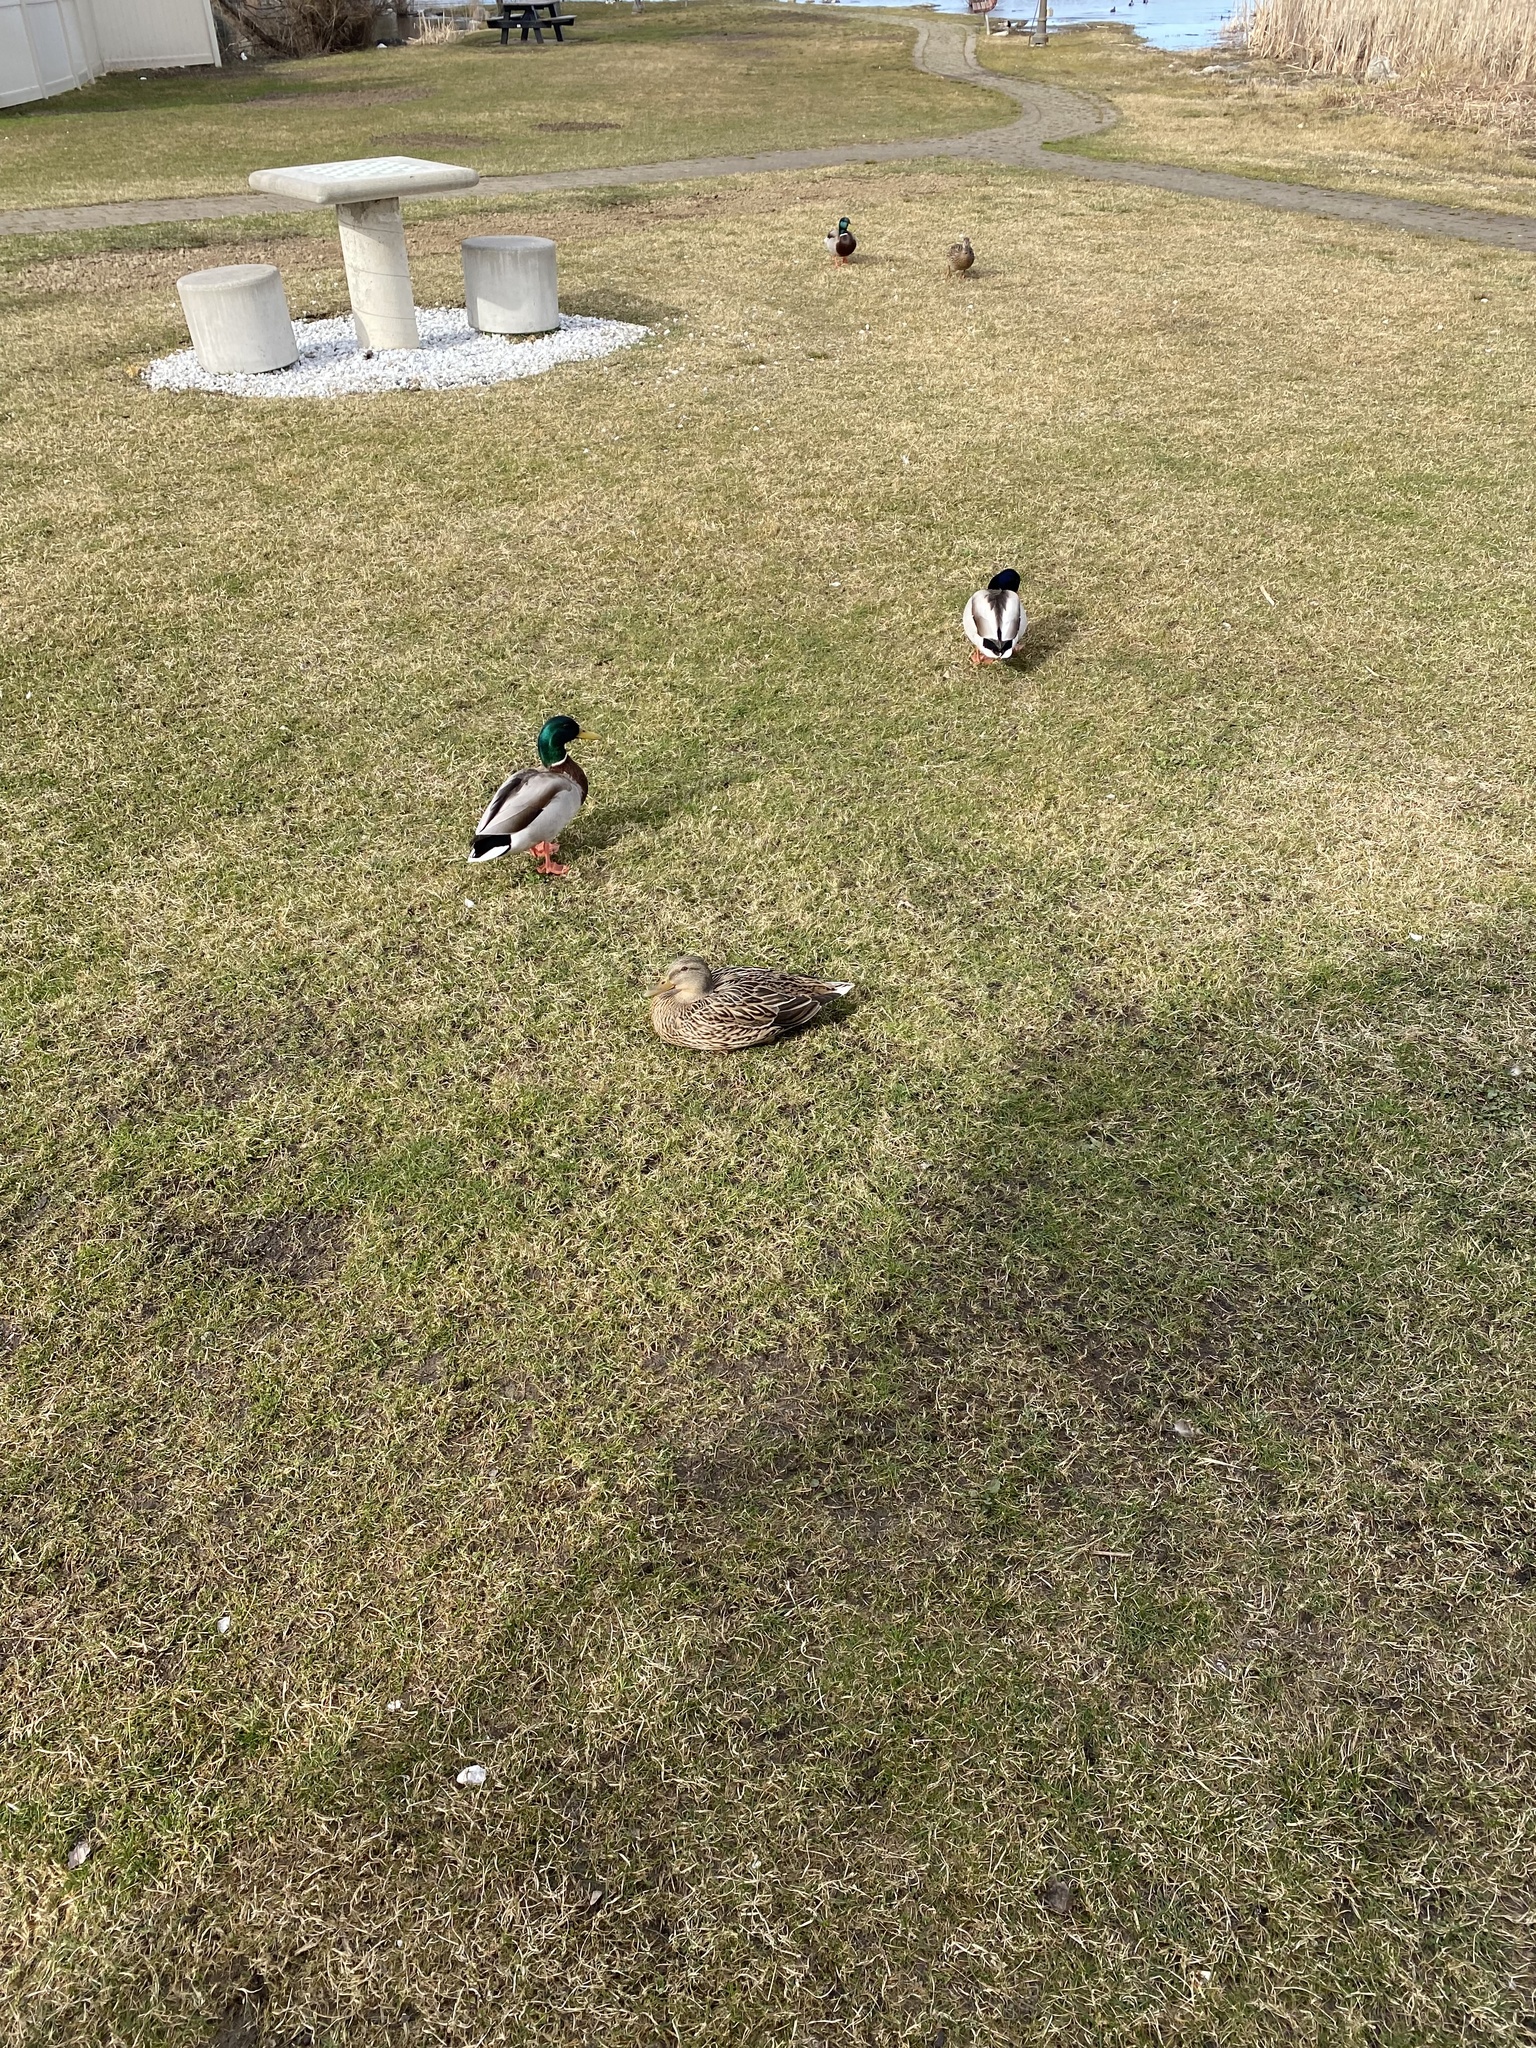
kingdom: Animalia
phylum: Chordata
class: Aves
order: Anseriformes
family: Anatidae
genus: Anas
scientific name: Anas platyrhynchos
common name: Mallard
